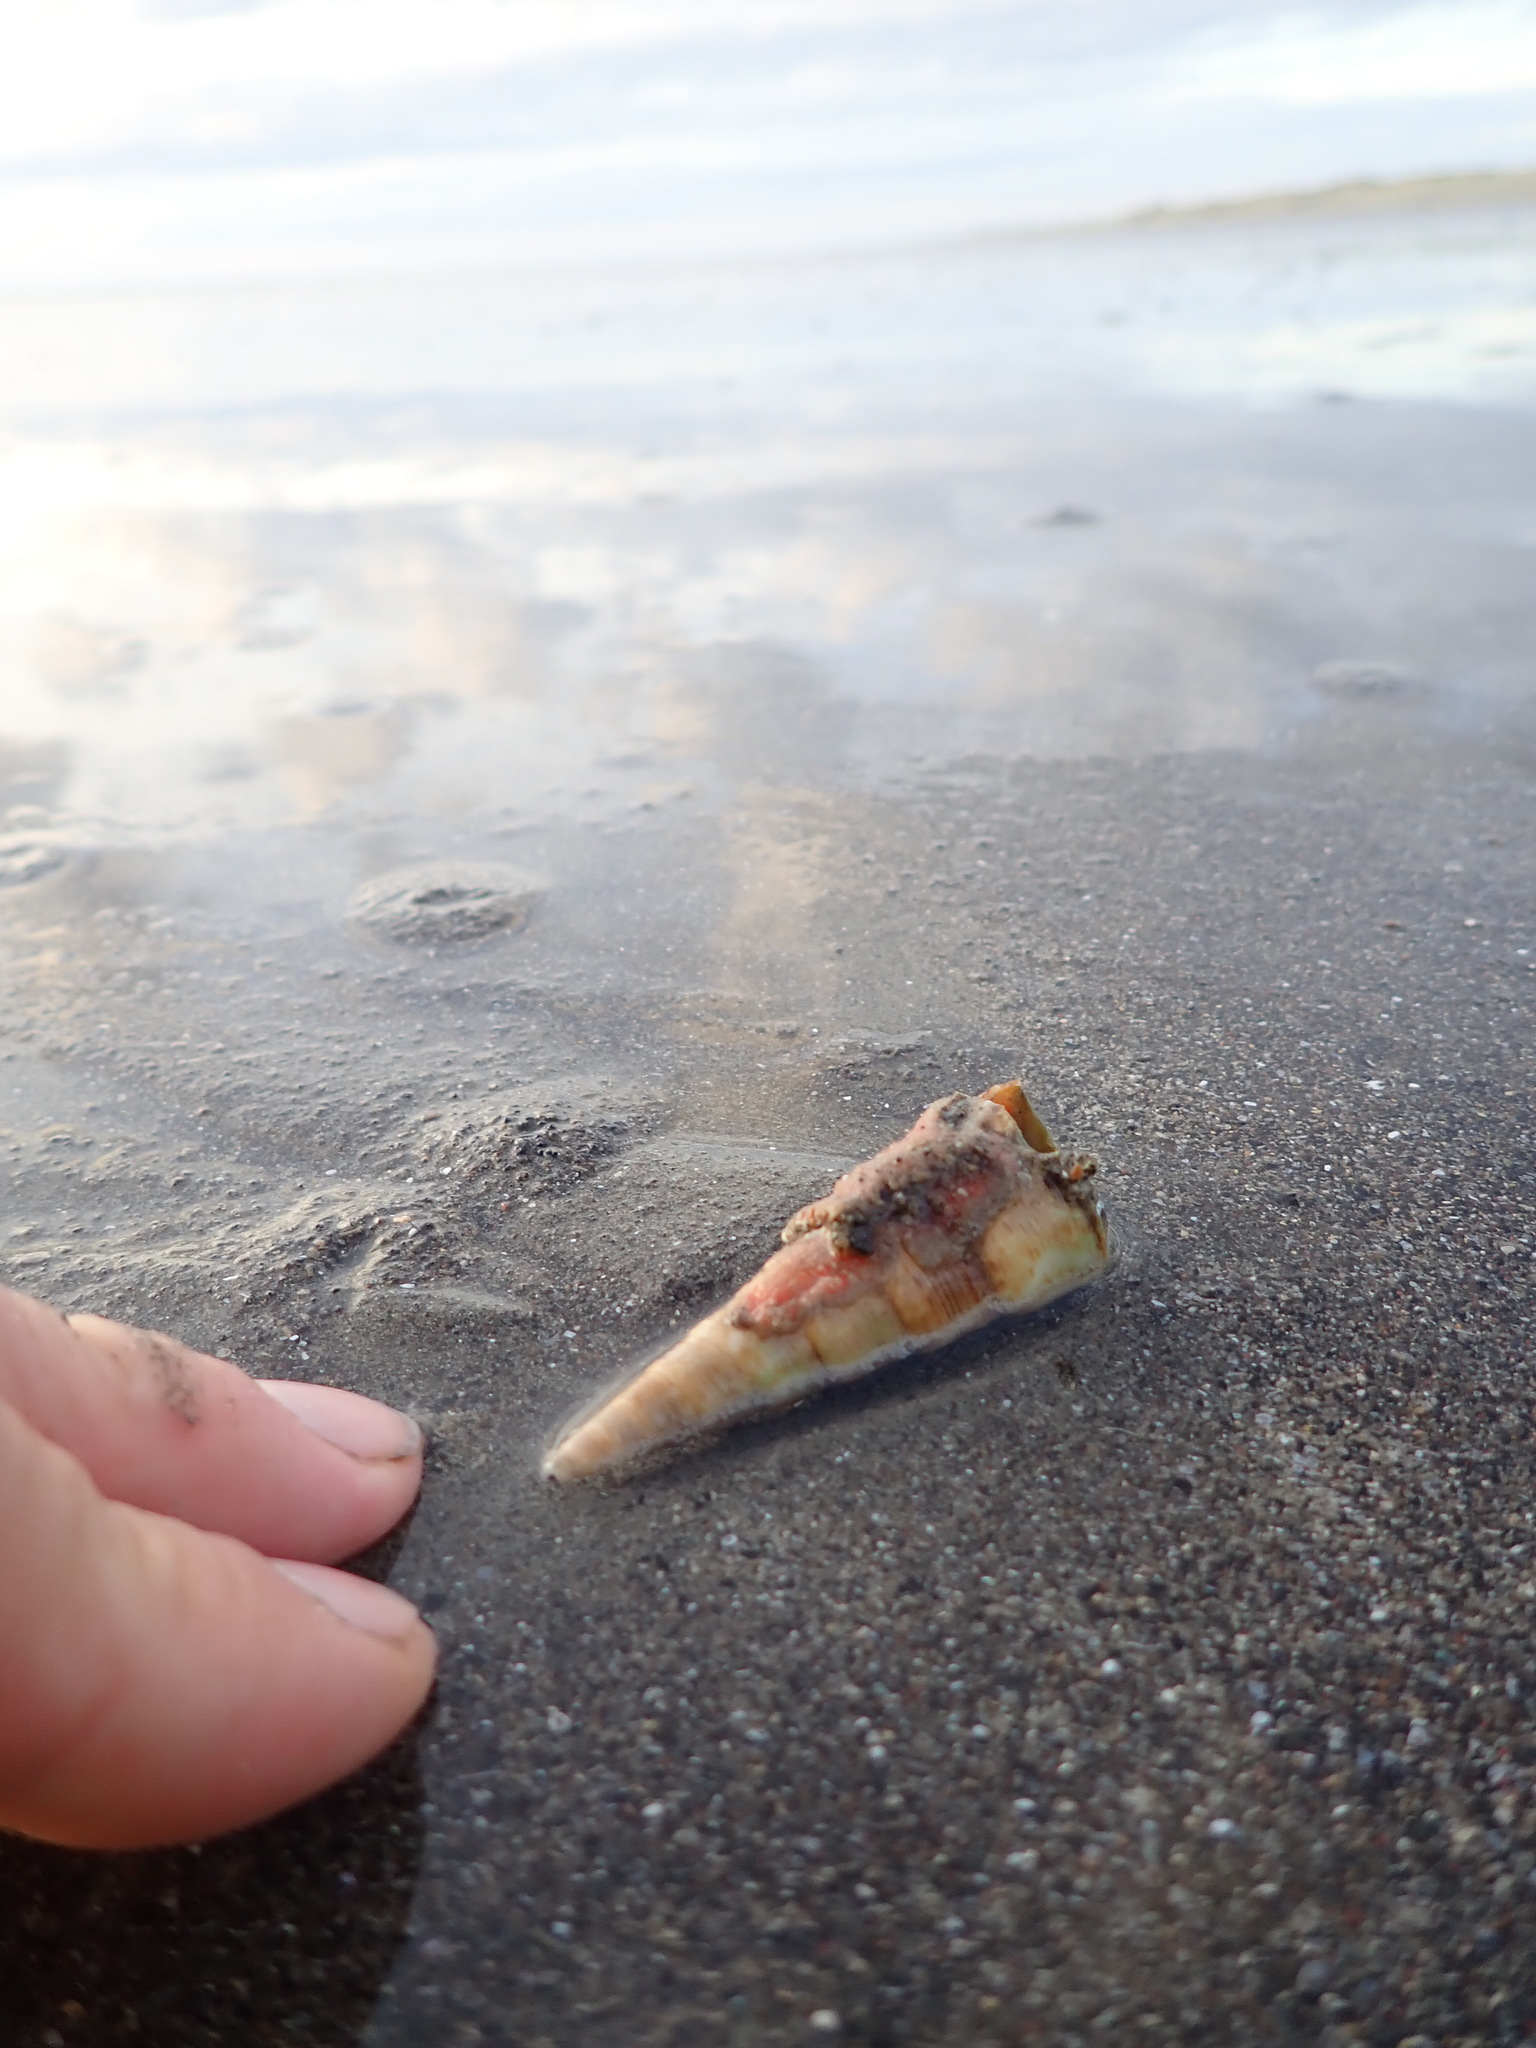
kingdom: Animalia
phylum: Mollusca
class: Gastropoda
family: Turritellidae
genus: Maoricolpus
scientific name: Maoricolpus roseus
